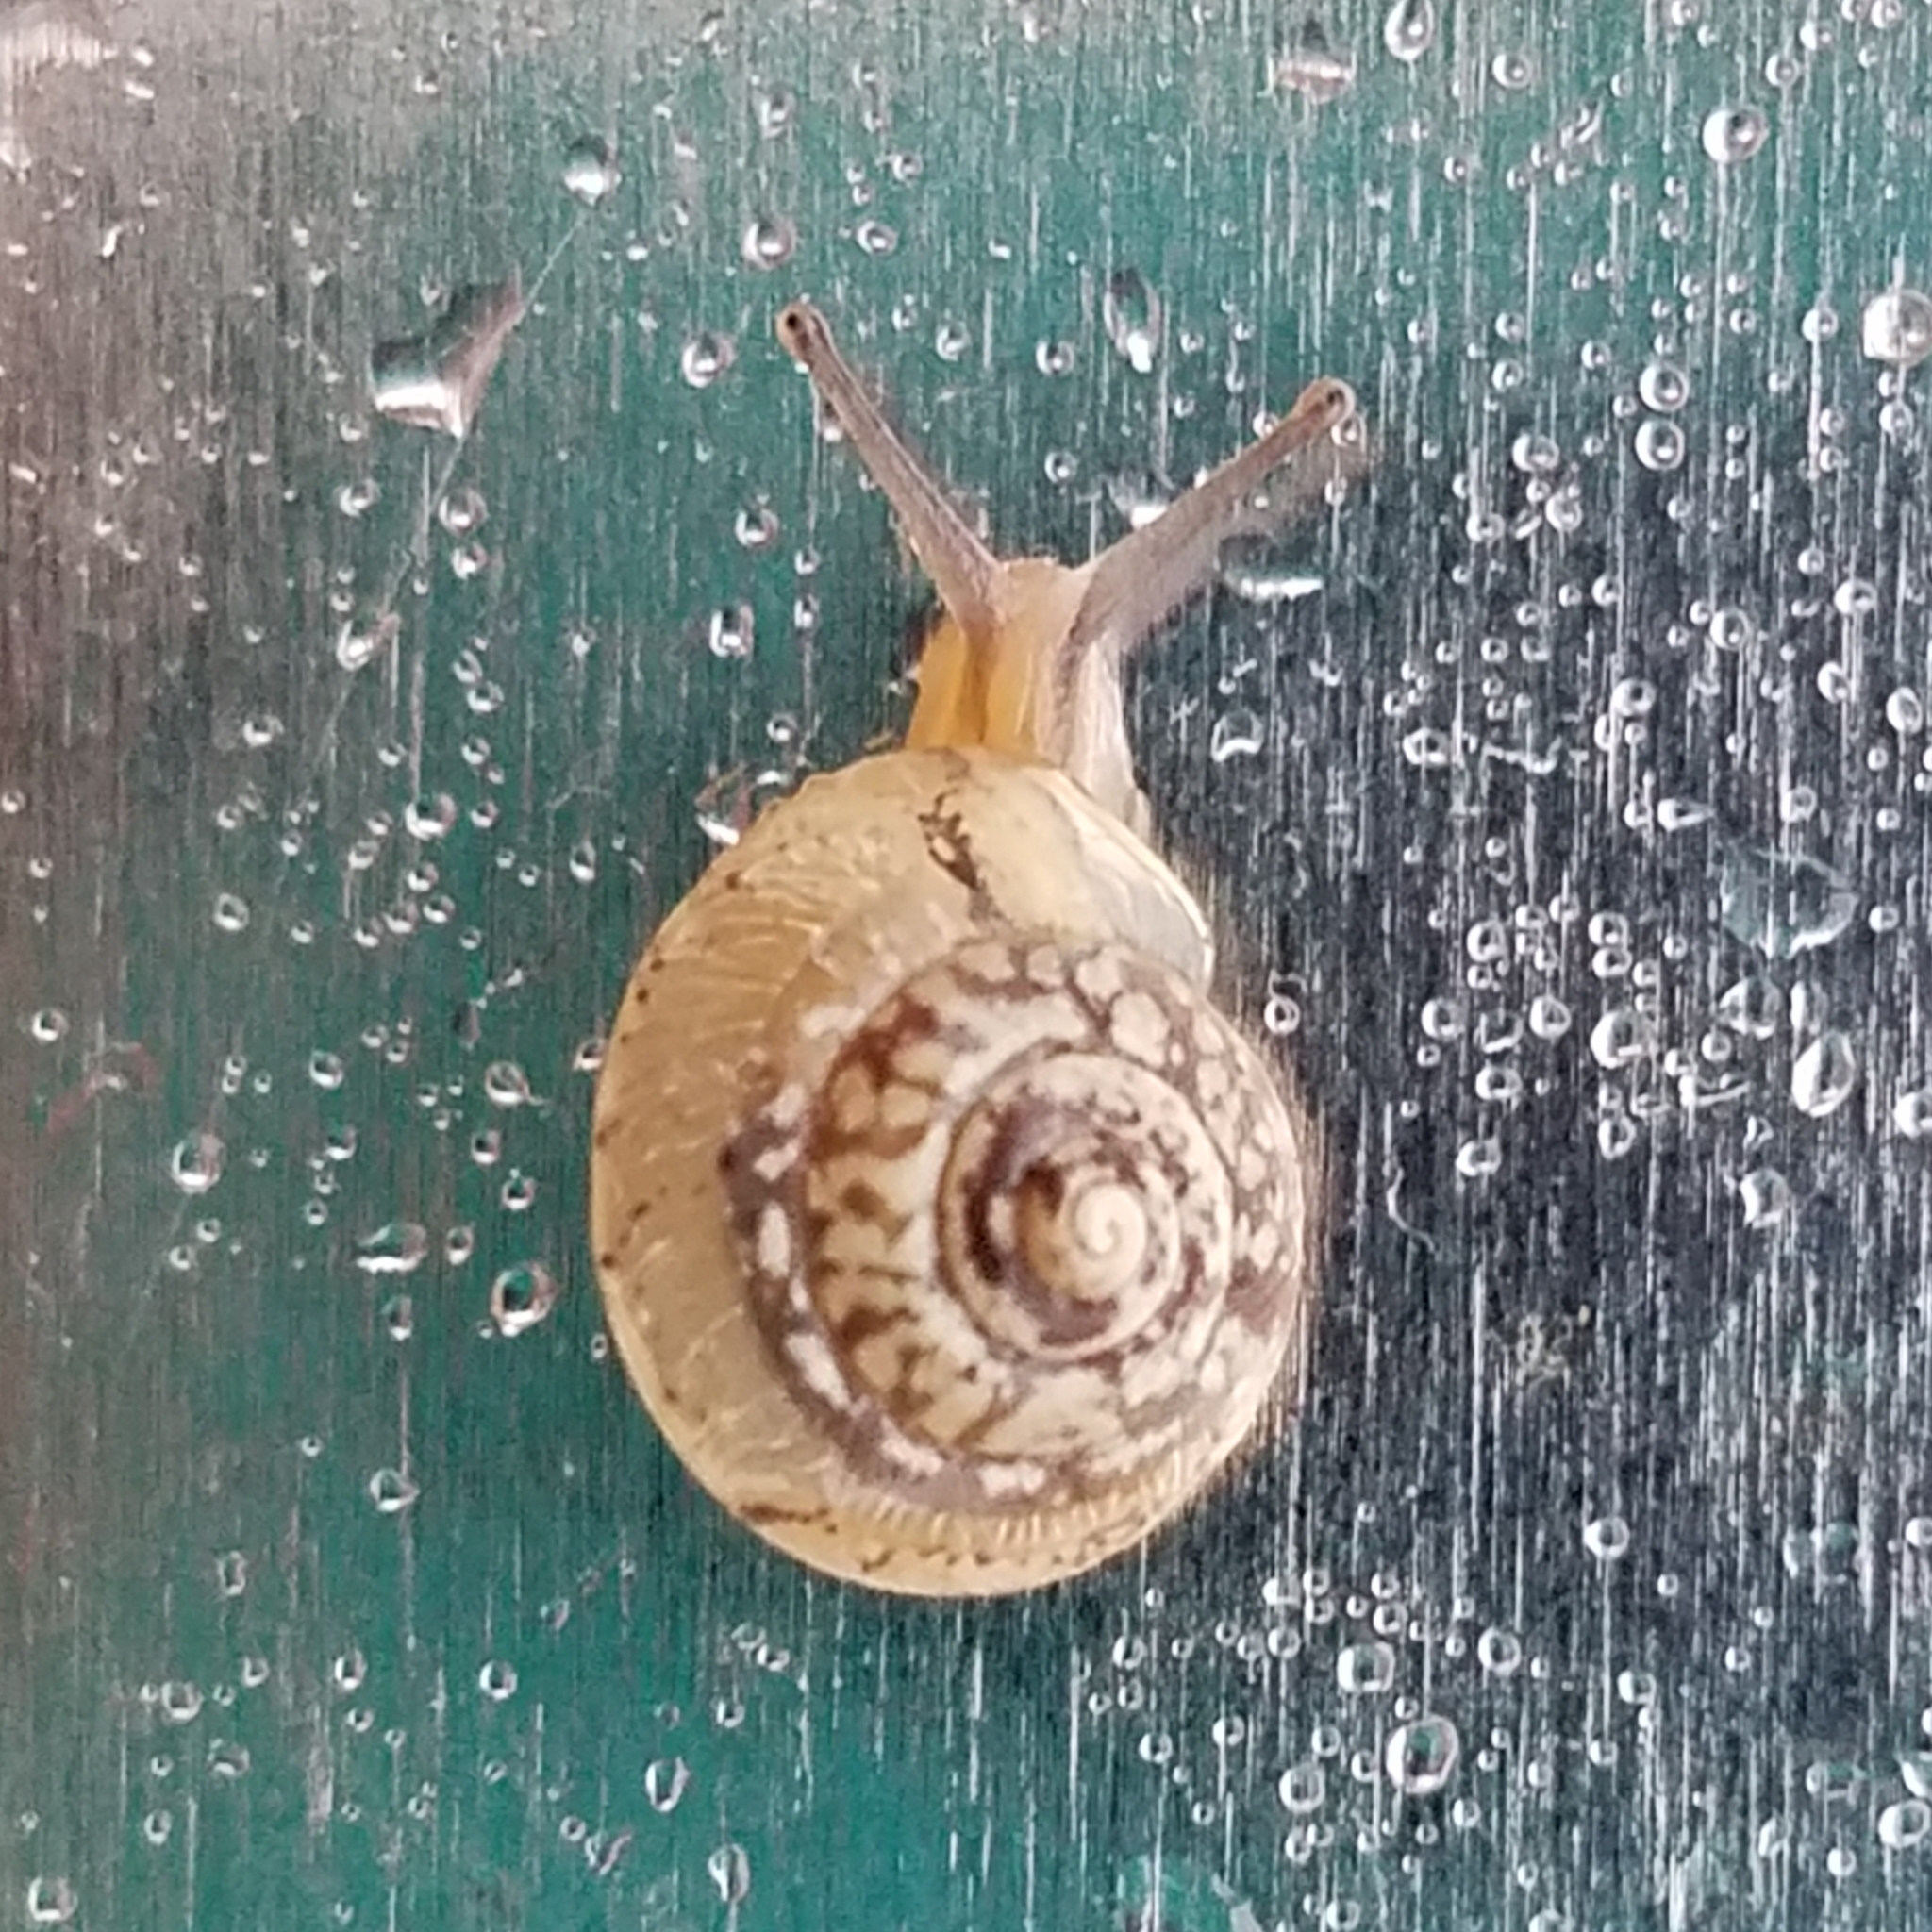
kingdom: Animalia
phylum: Mollusca
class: Gastropoda
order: Stylommatophora
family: Hygromiidae
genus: Hygromia
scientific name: Hygromia cinctella
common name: Girdled snail
